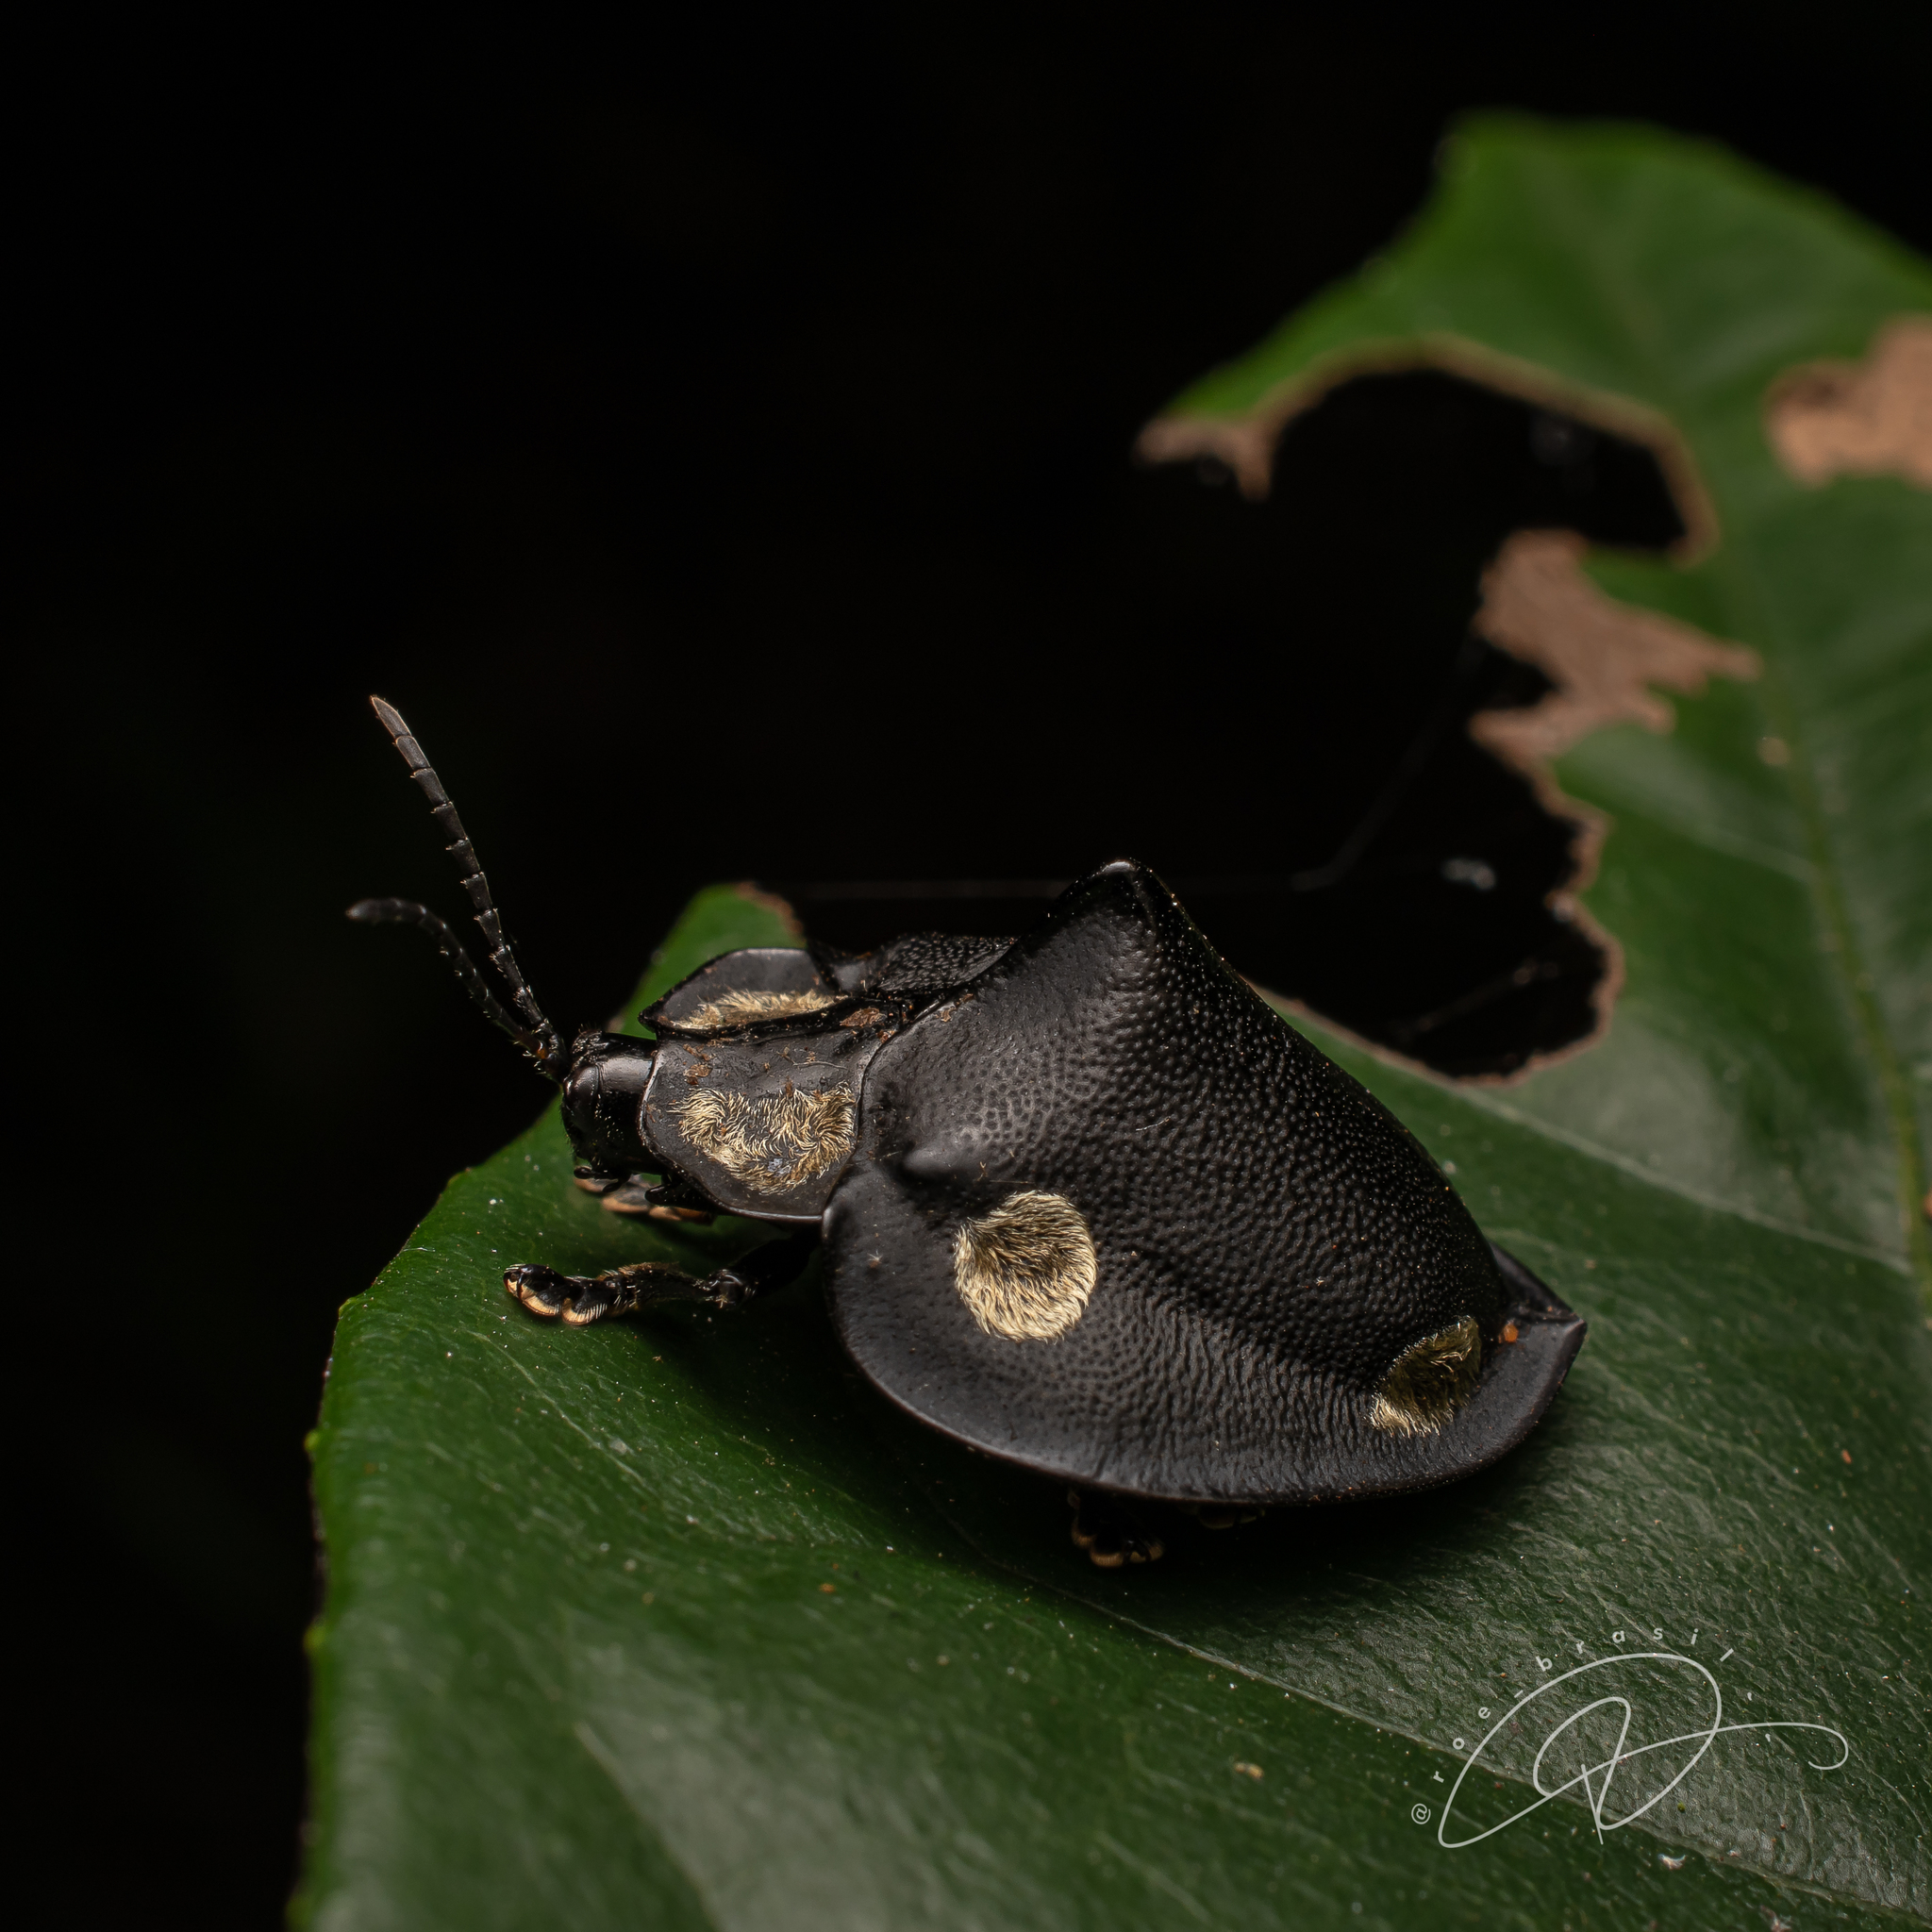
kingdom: Animalia
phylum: Arthropoda
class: Insecta
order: Coleoptera
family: Chrysomelidae
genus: Mesomphalia
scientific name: Mesomphalia turrita
